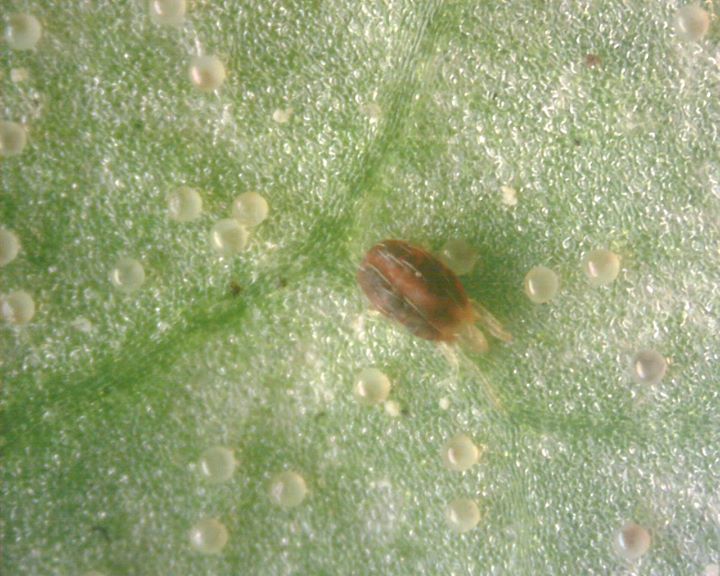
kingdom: Animalia
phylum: Arthropoda
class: Arachnida
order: Trombidiformes
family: Tetranychidae
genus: Tetranychus
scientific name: Tetranychus urticae
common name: Carmine spider mite
